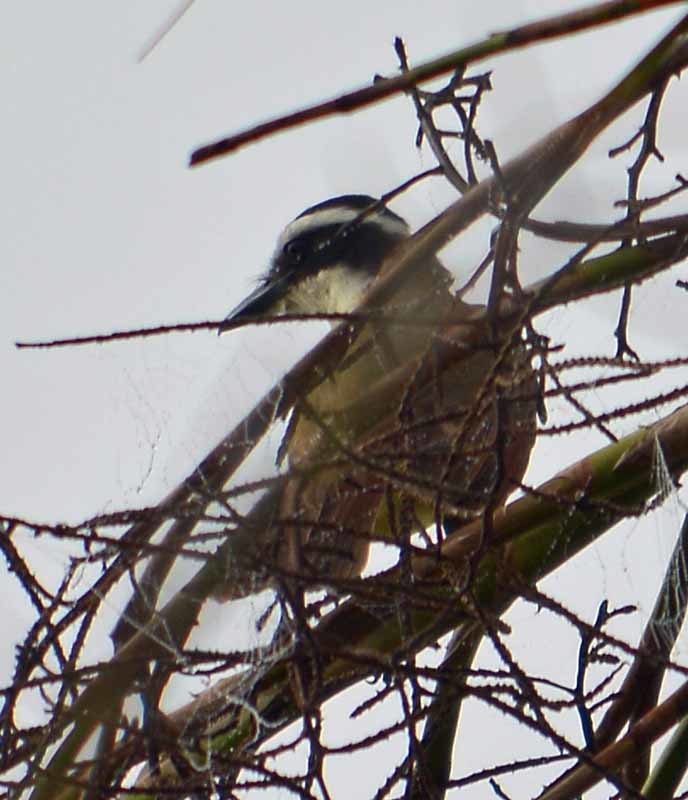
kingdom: Animalia
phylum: Chordata
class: Aves
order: Passeriformes
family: Tyrannidae
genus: Pitangus
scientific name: Pitangus sulphuratus
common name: Great kiskadee
